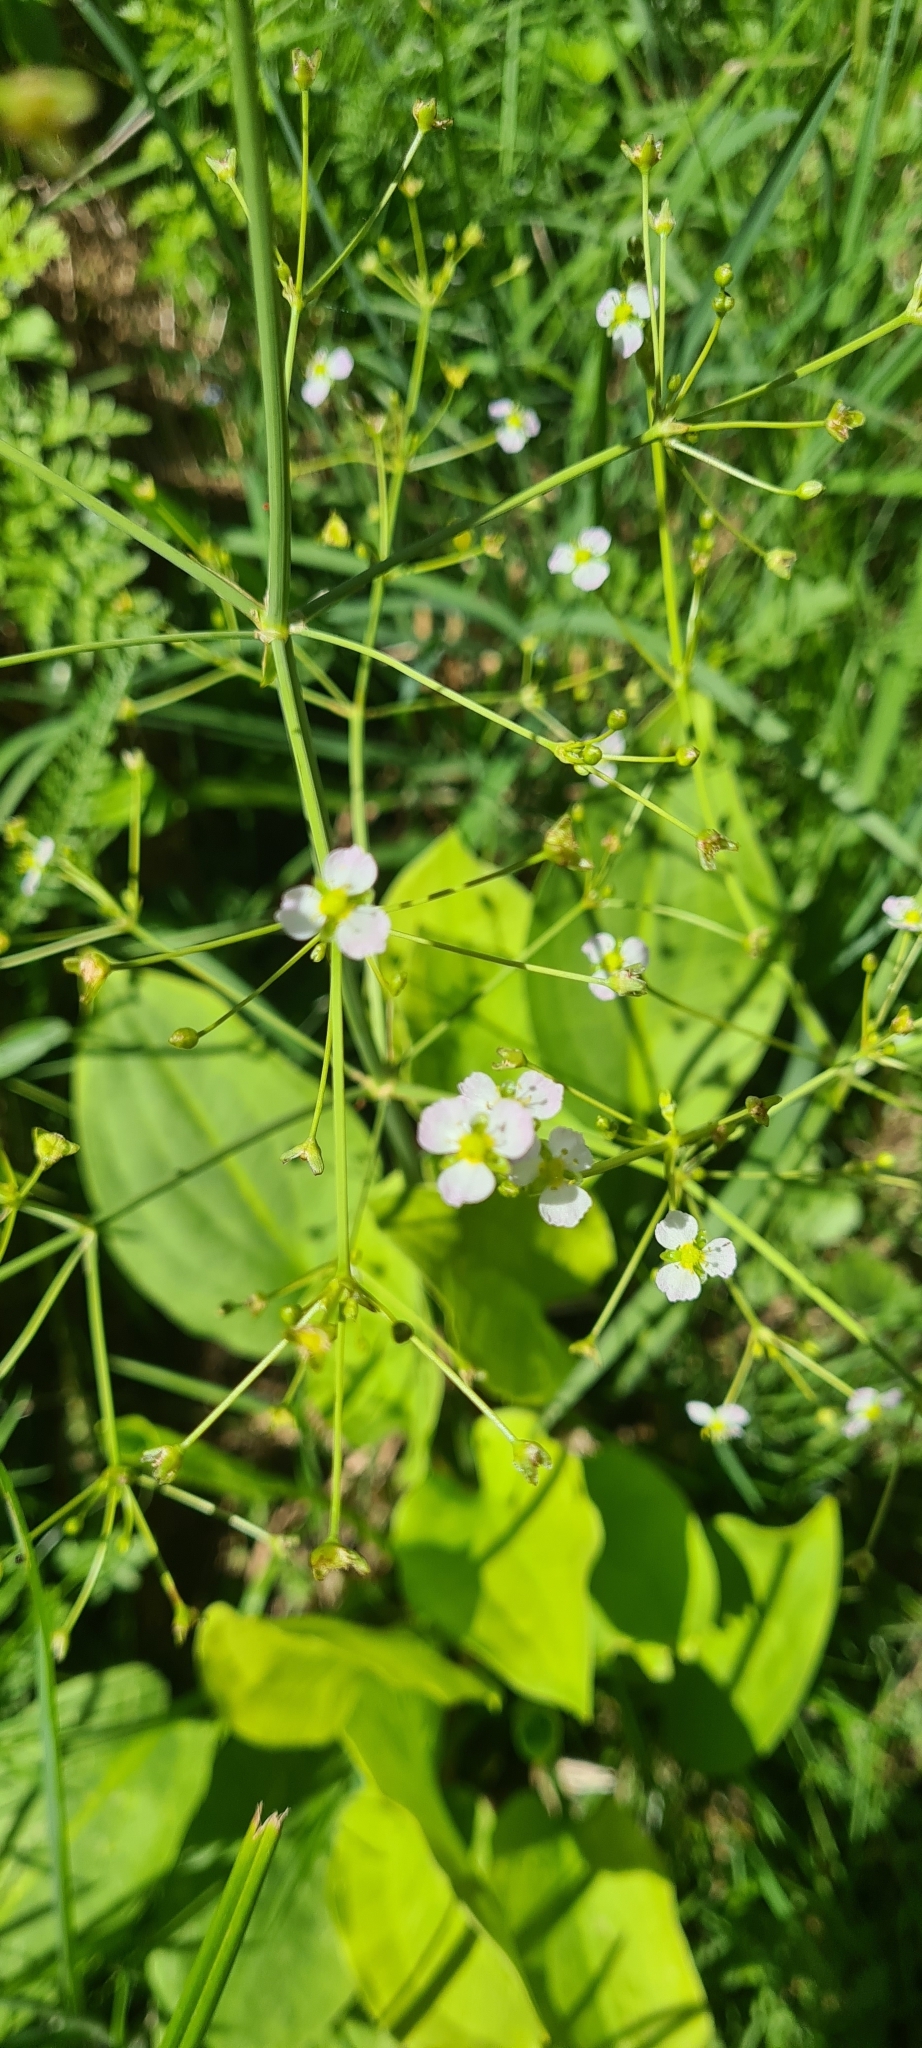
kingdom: Plantae
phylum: Tracheophyta
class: Liliopsida
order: Alismatales
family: Alismataceae
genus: Alisma
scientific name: Alisma plantago-aquatica
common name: Water-plantain
